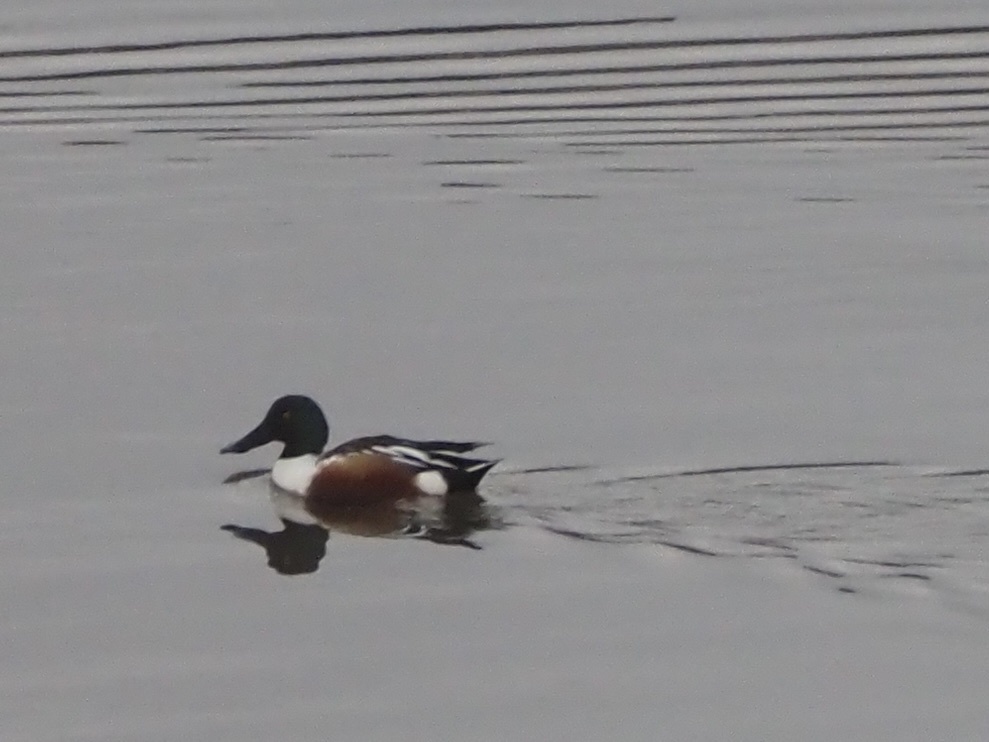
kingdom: Animalia
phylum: Chordata
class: Aves
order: Anseriformes
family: Anatidae
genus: Spatula
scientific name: Spatula clypeata
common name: Northern shoveler
